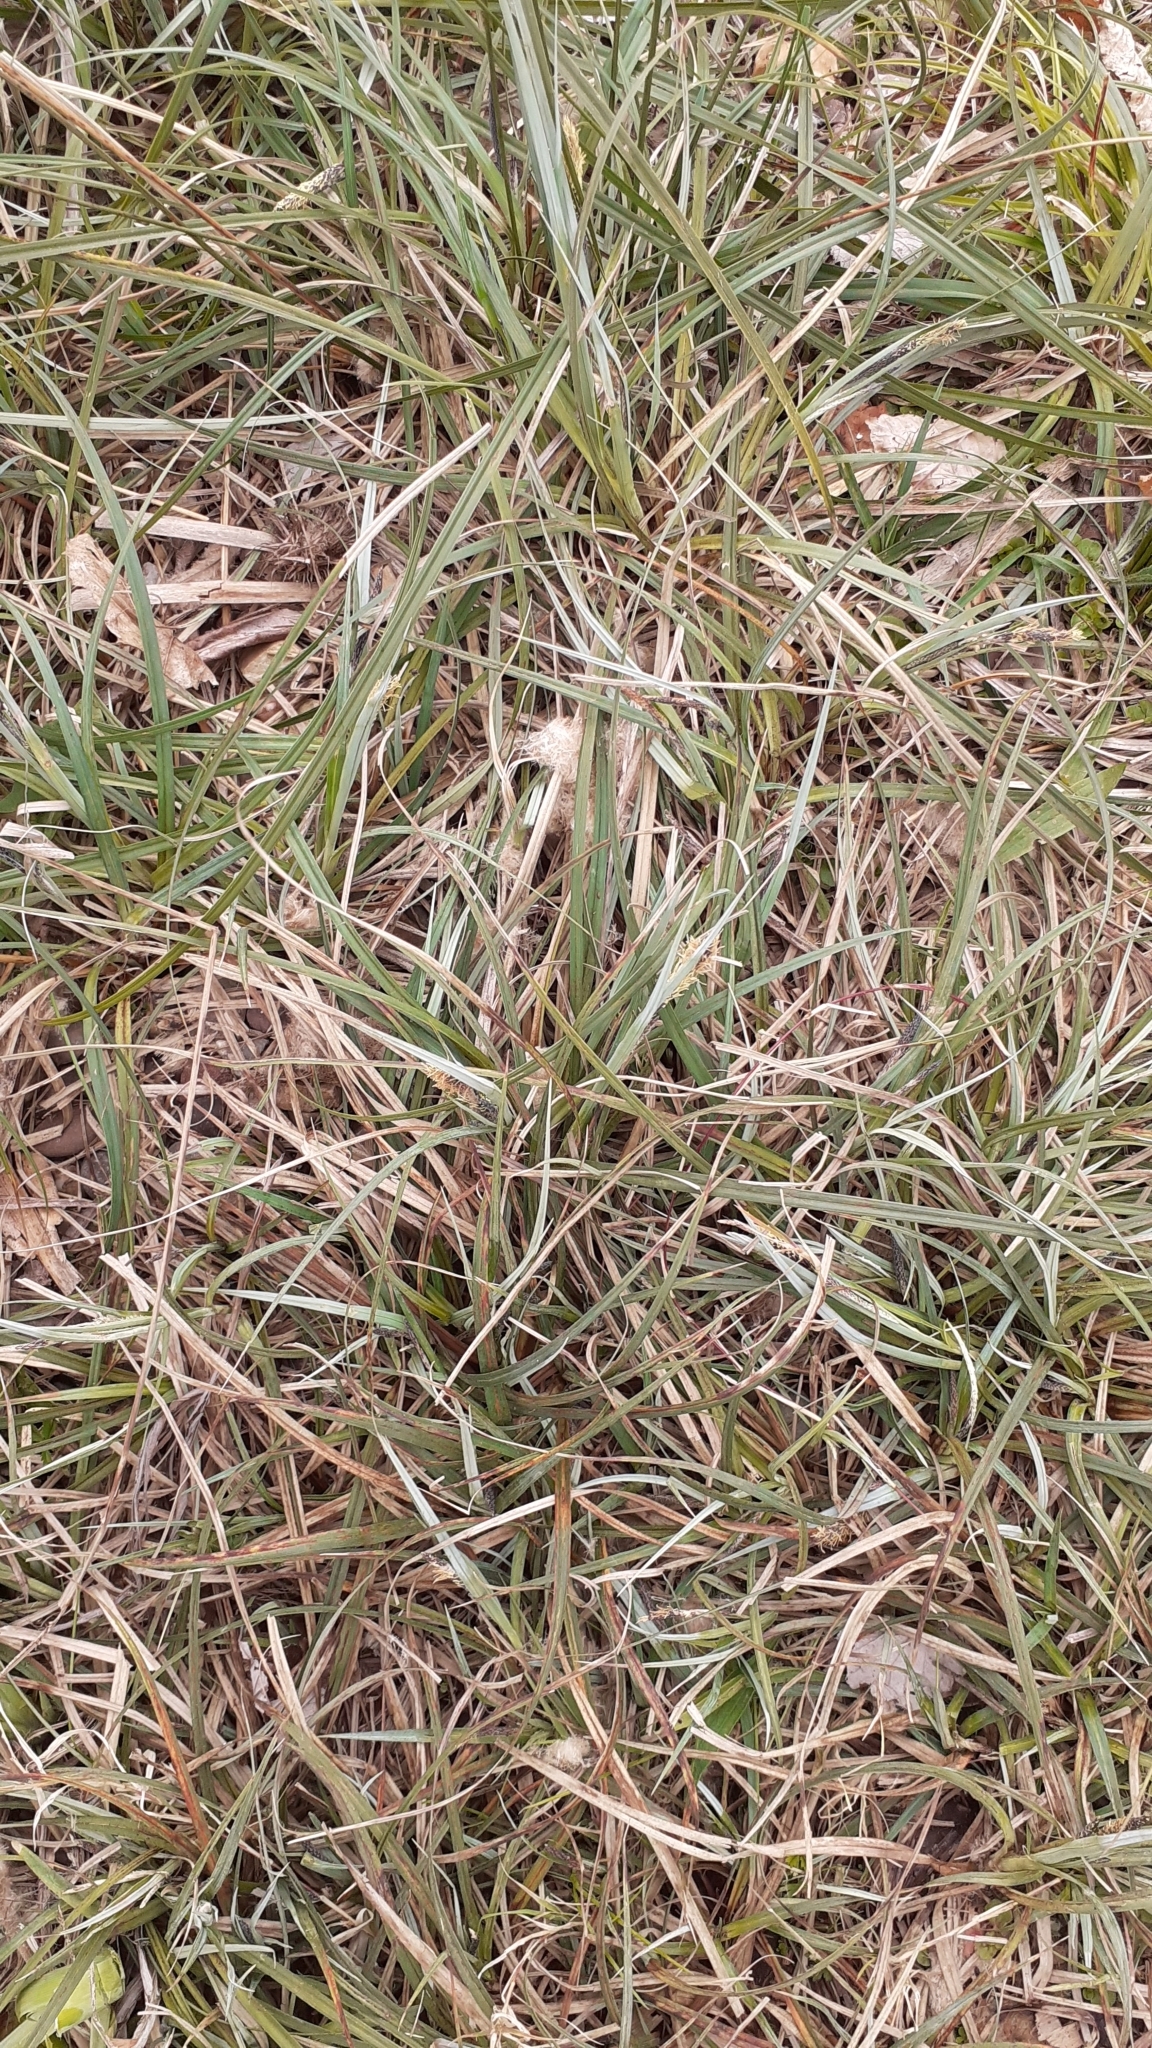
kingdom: Plantae
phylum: Tracheophyta
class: Liliopsida
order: Poales
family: Cyperaceae
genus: Carex
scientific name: Carex flacca
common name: Glaucous sedge
